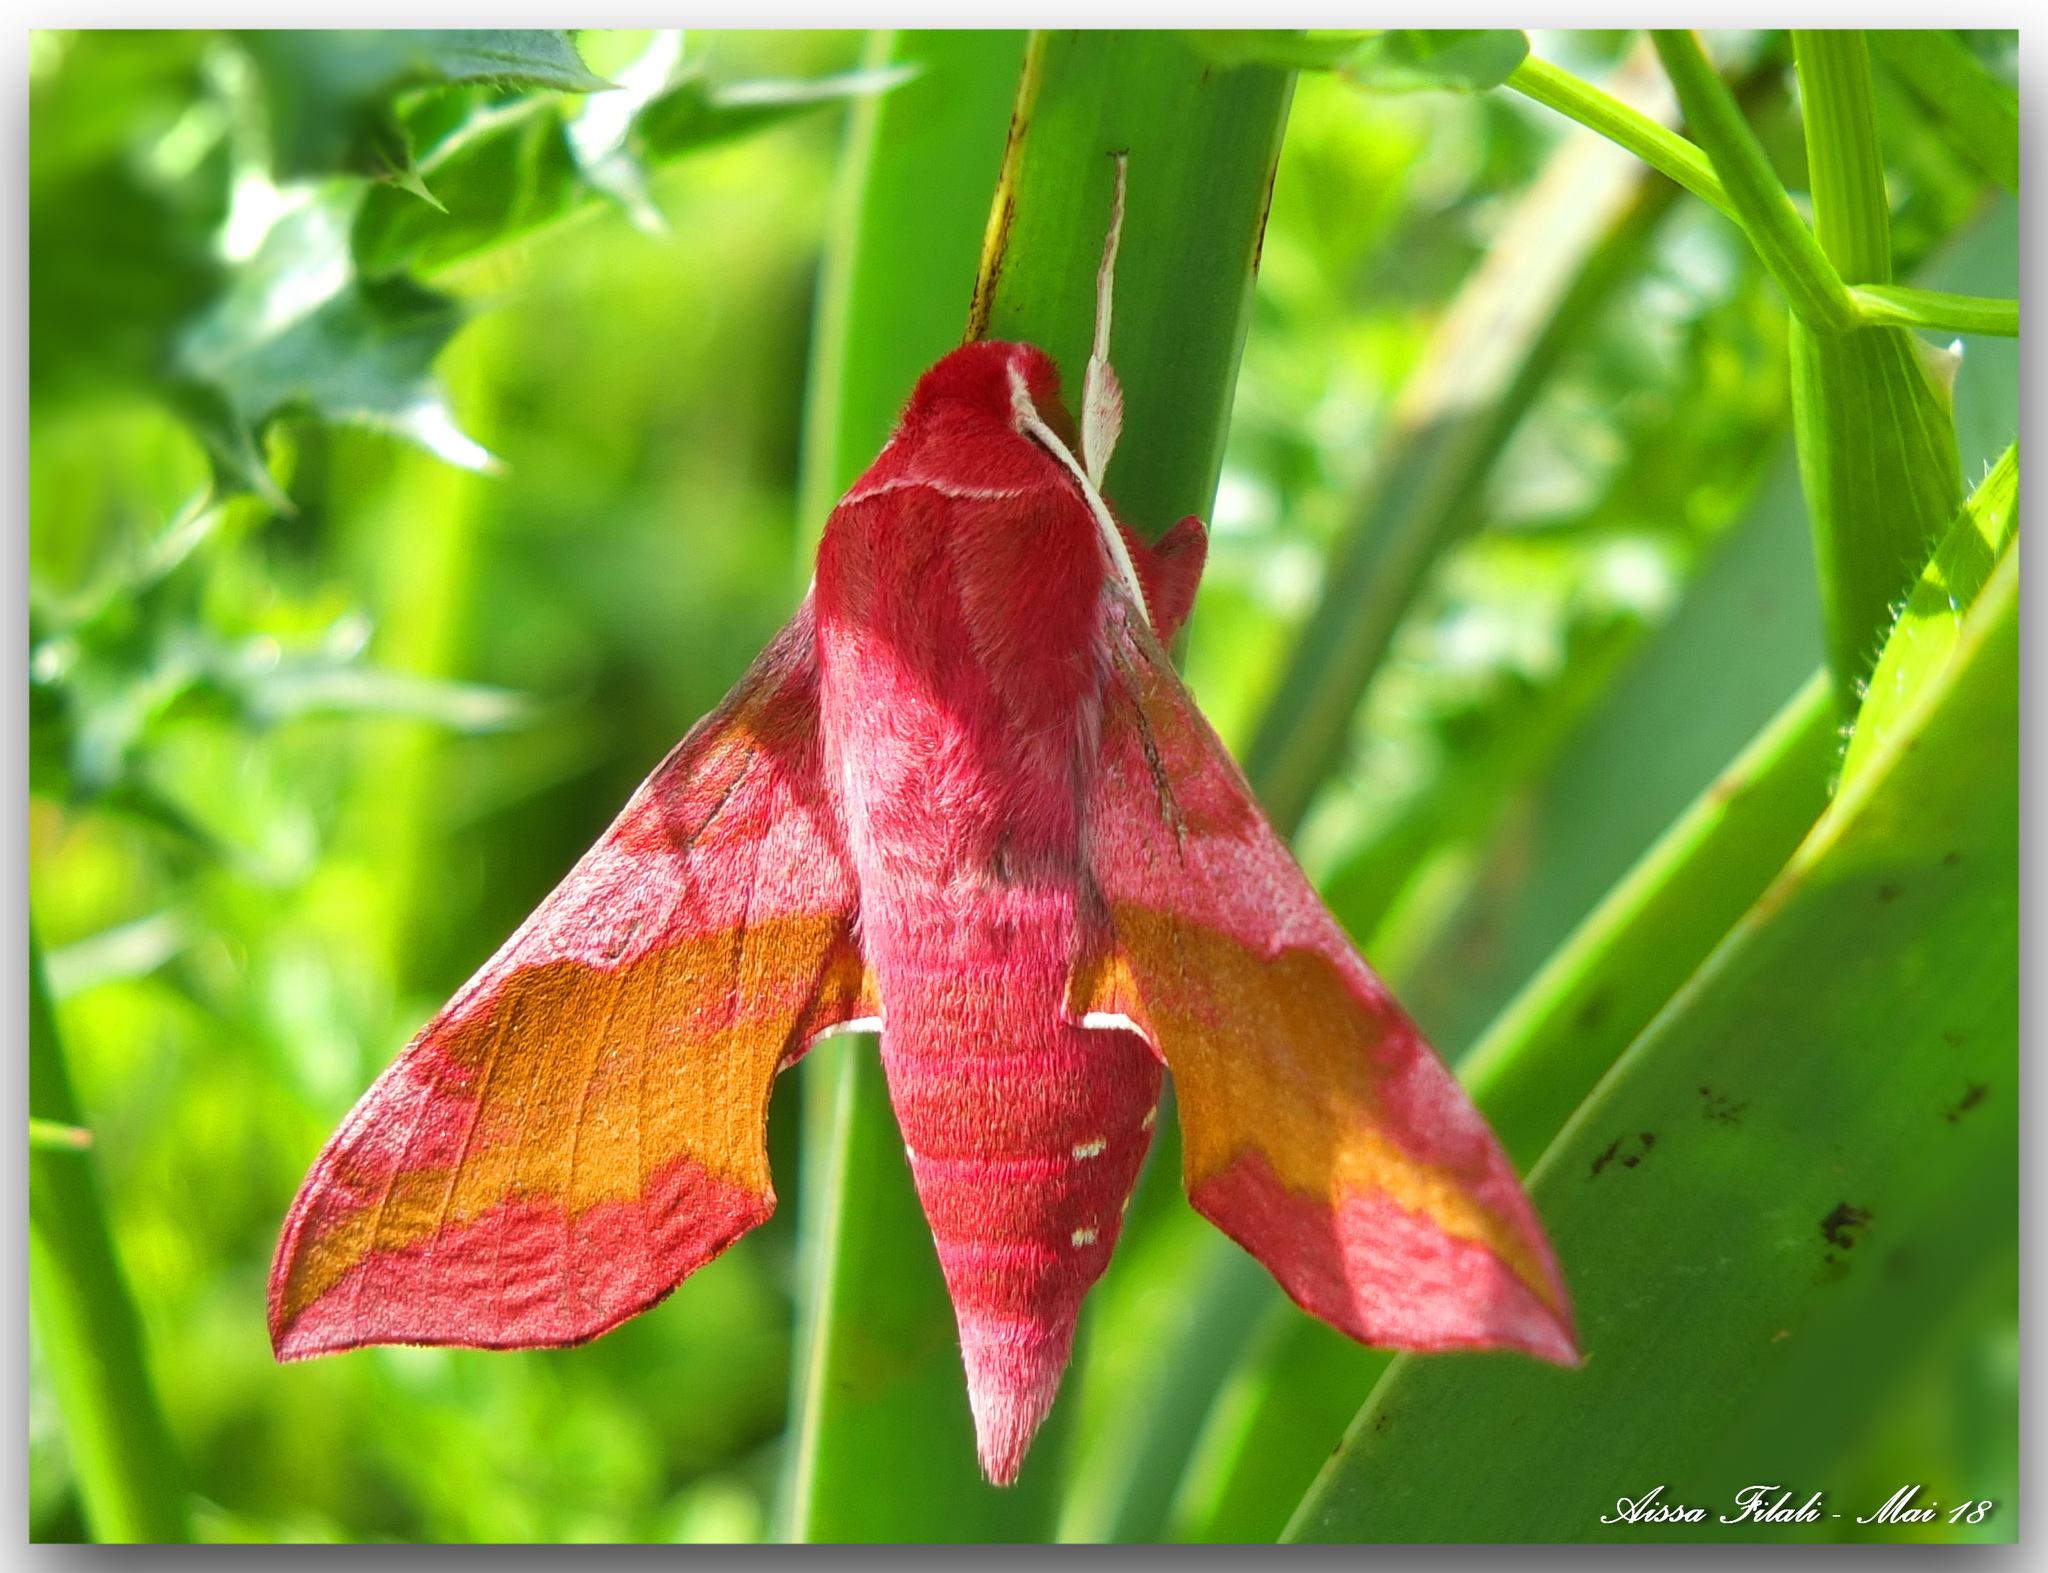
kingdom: Animalia
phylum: Arthropoda
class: Insecta
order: Lepidoptera
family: Sphingidae
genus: Deilephila
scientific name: Deilephila porcellus
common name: Small elephant hawk-moth
